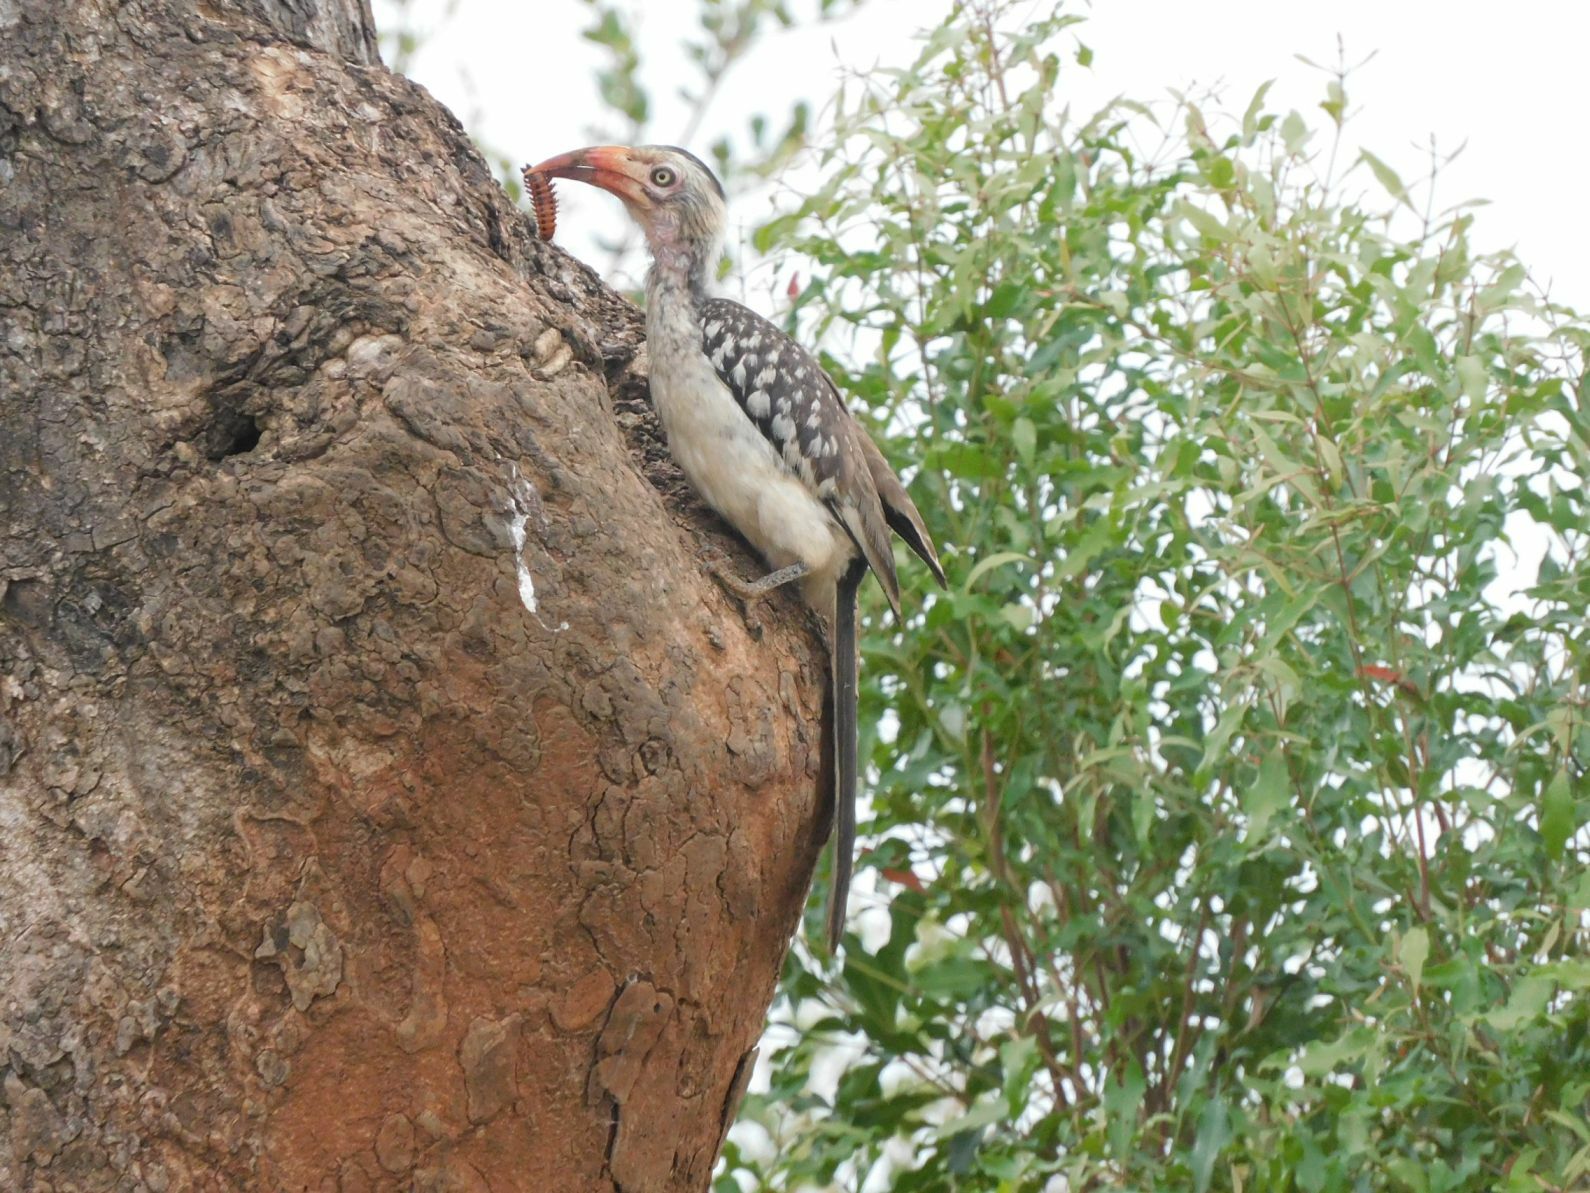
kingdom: Animalia
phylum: Chordata
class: Aves
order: Bucerotiformes
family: Bucerotidae
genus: Tockus
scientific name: Tockus rufirostris
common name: Southern red-billed hornbill
